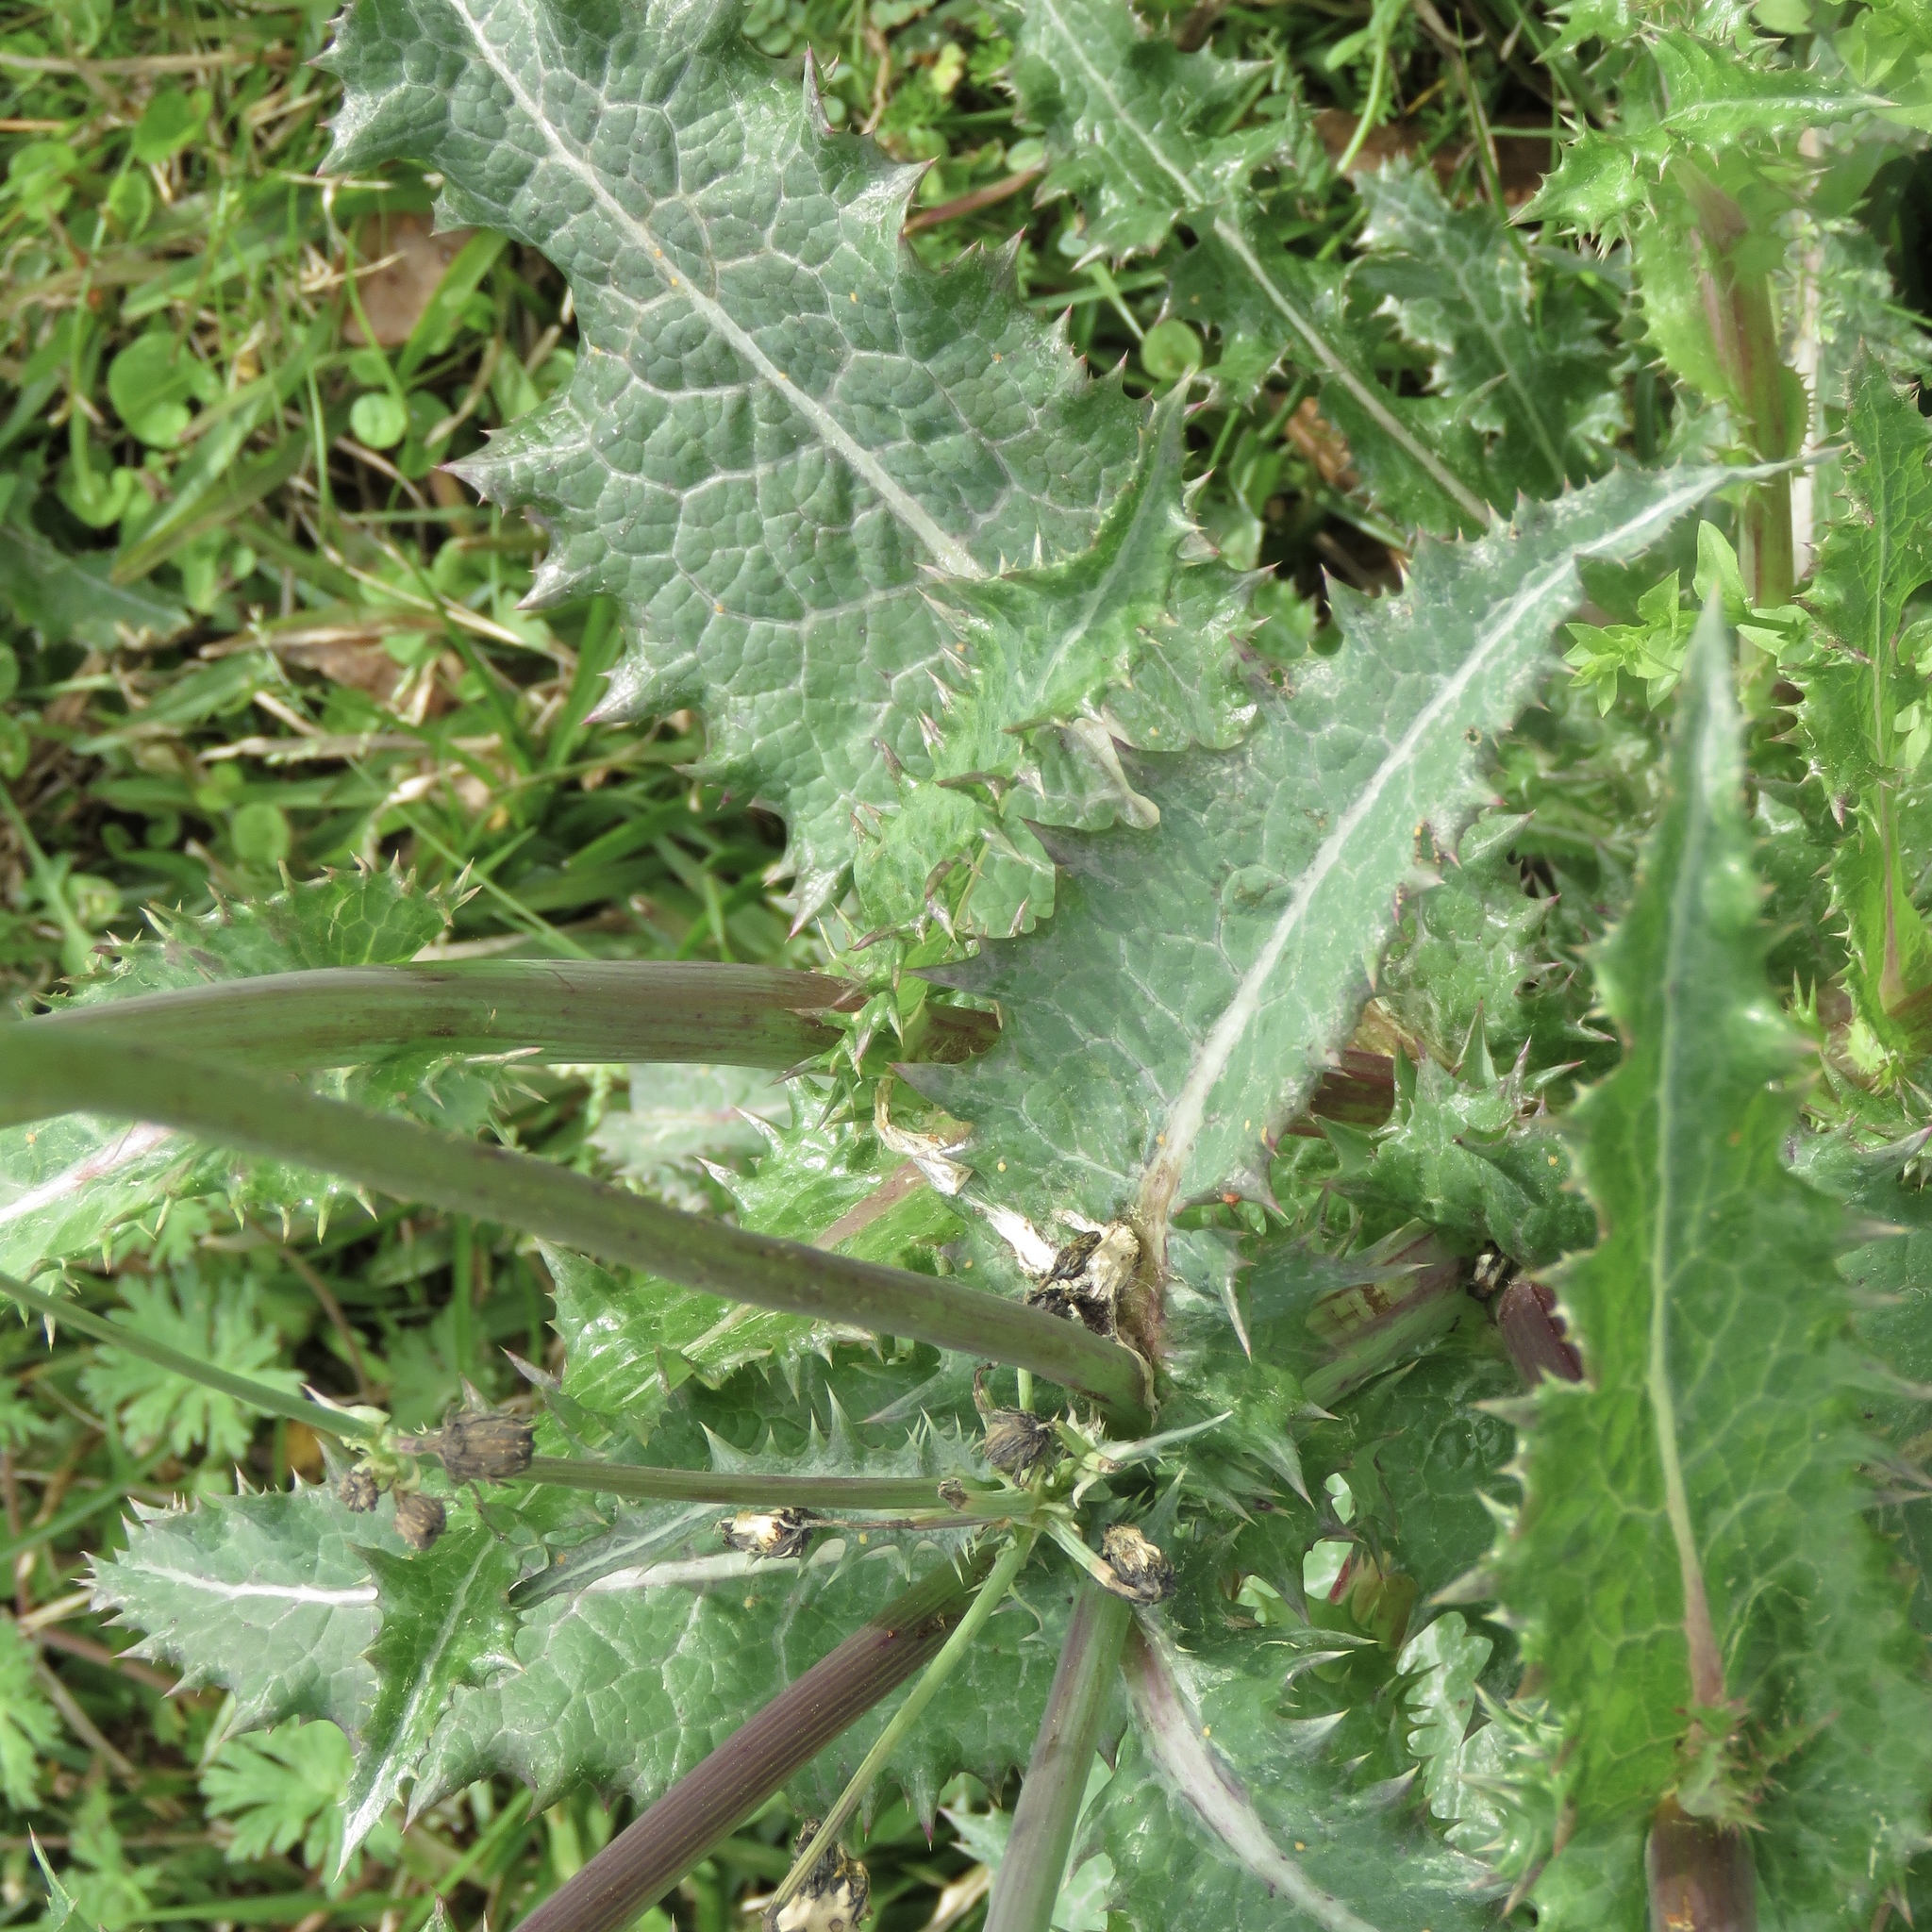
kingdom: Plantae
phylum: Tracheophyta
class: Magnoliopsida
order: Asterales
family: Asteraceae
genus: Sonchus
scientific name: Sonchus asper
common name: Prickly sow-thistle
